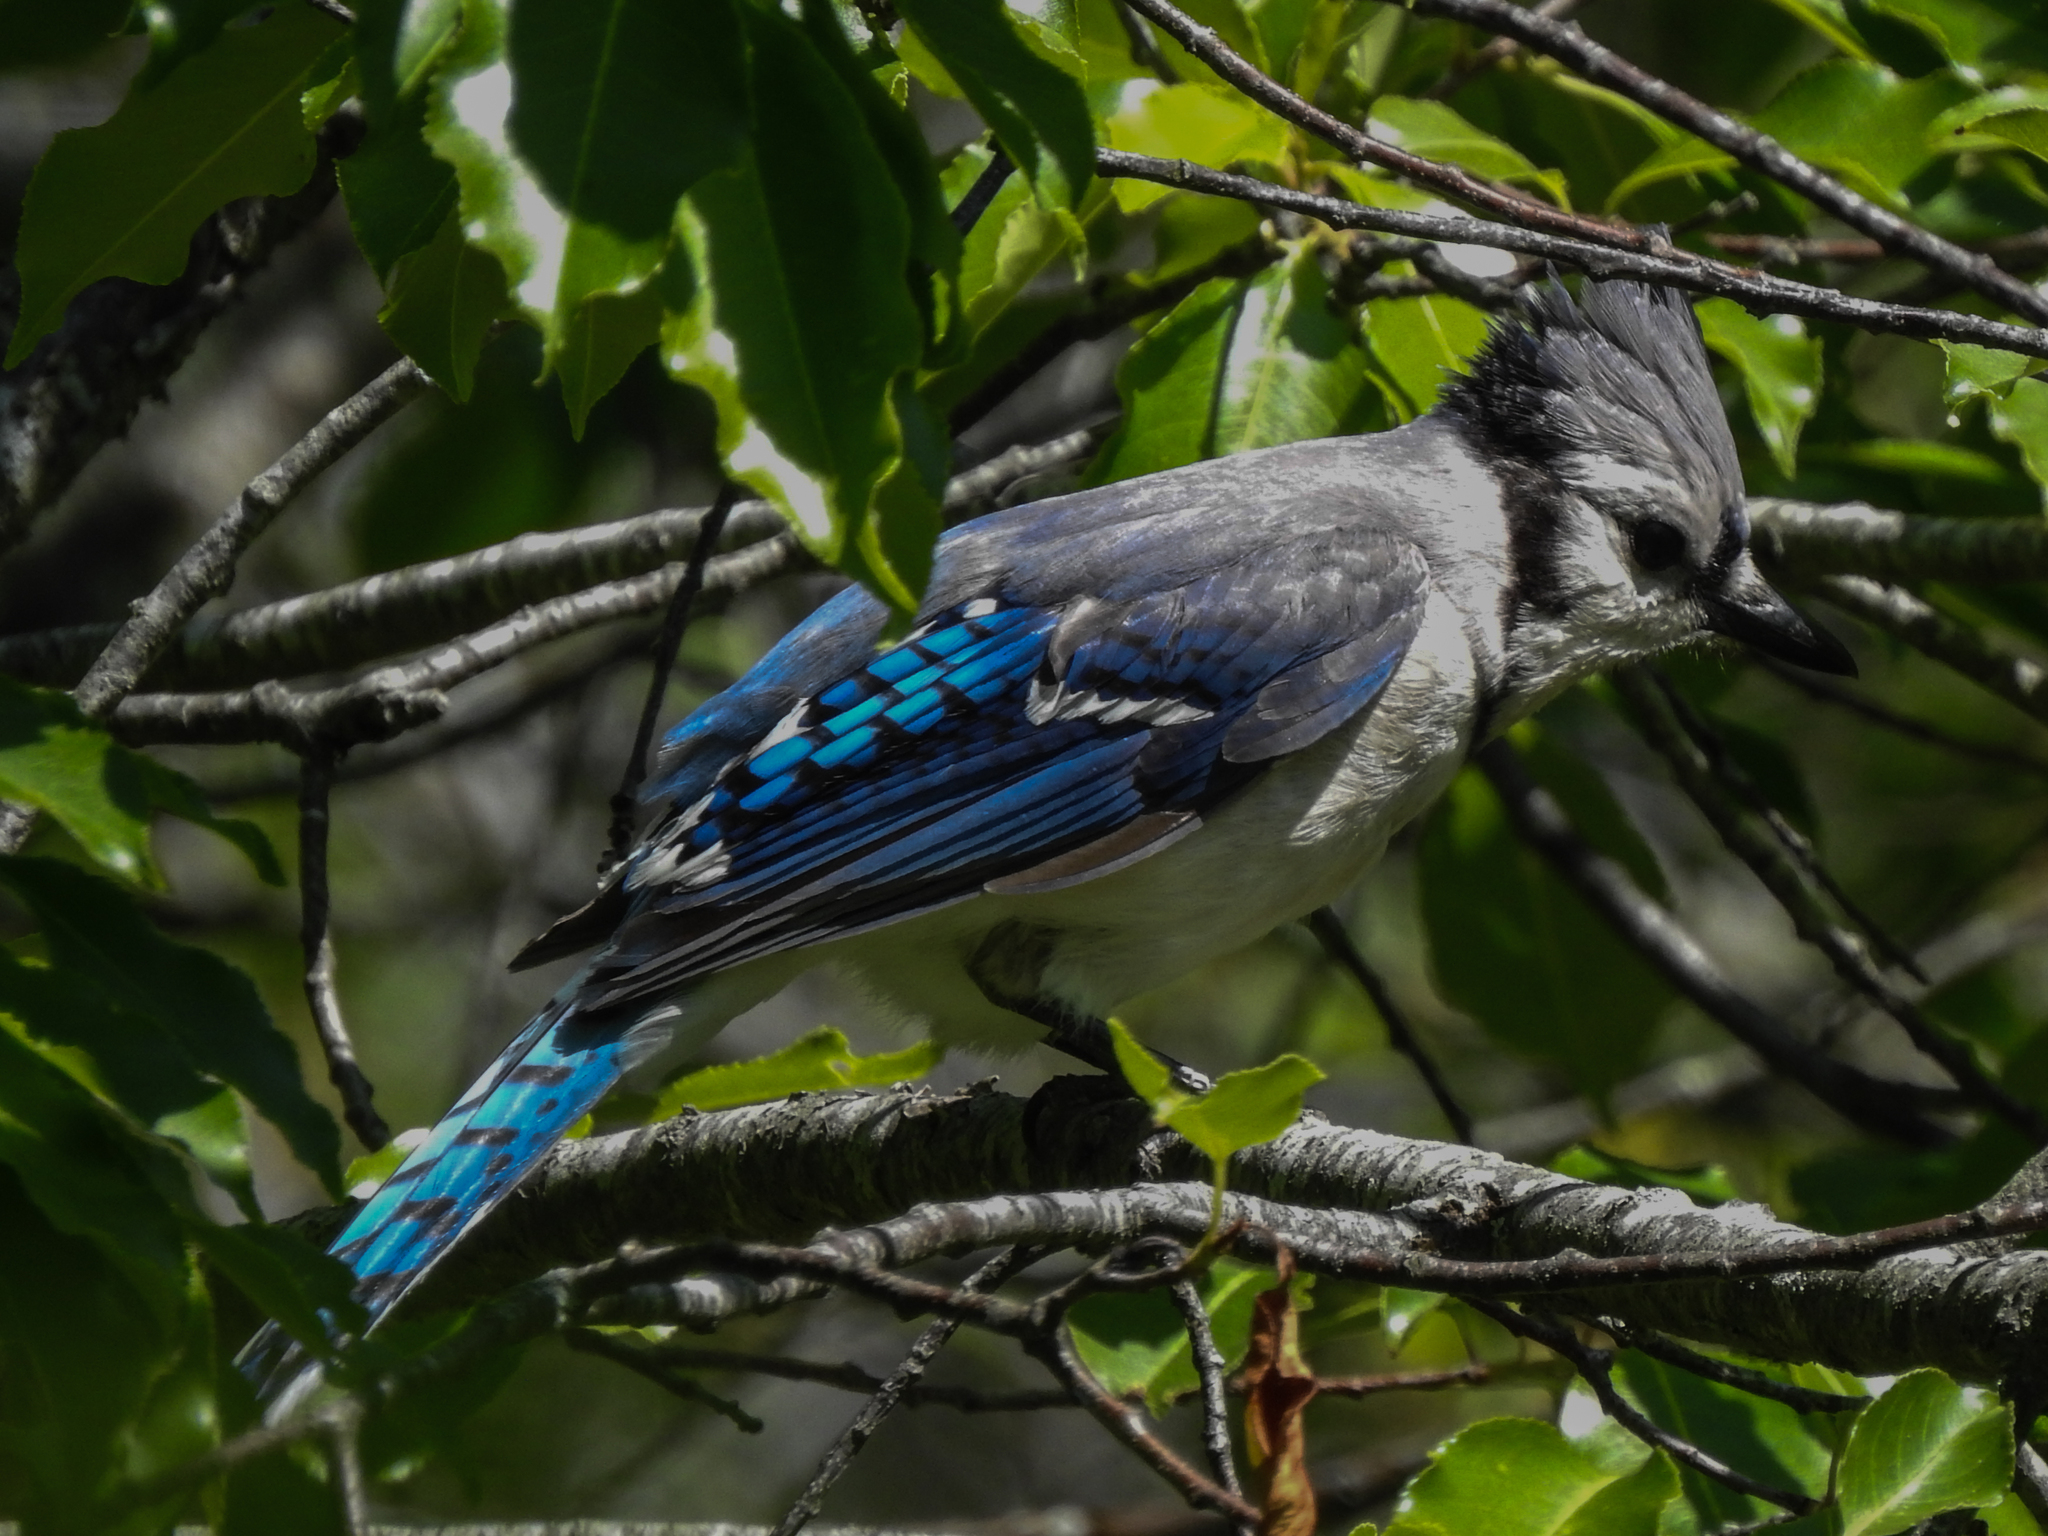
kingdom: Animalia
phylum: Chordata
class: Aves
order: Passeriformes
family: Corvidae
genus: Cyanocitta
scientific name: Cyanocitta cristata
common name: Blue jay
